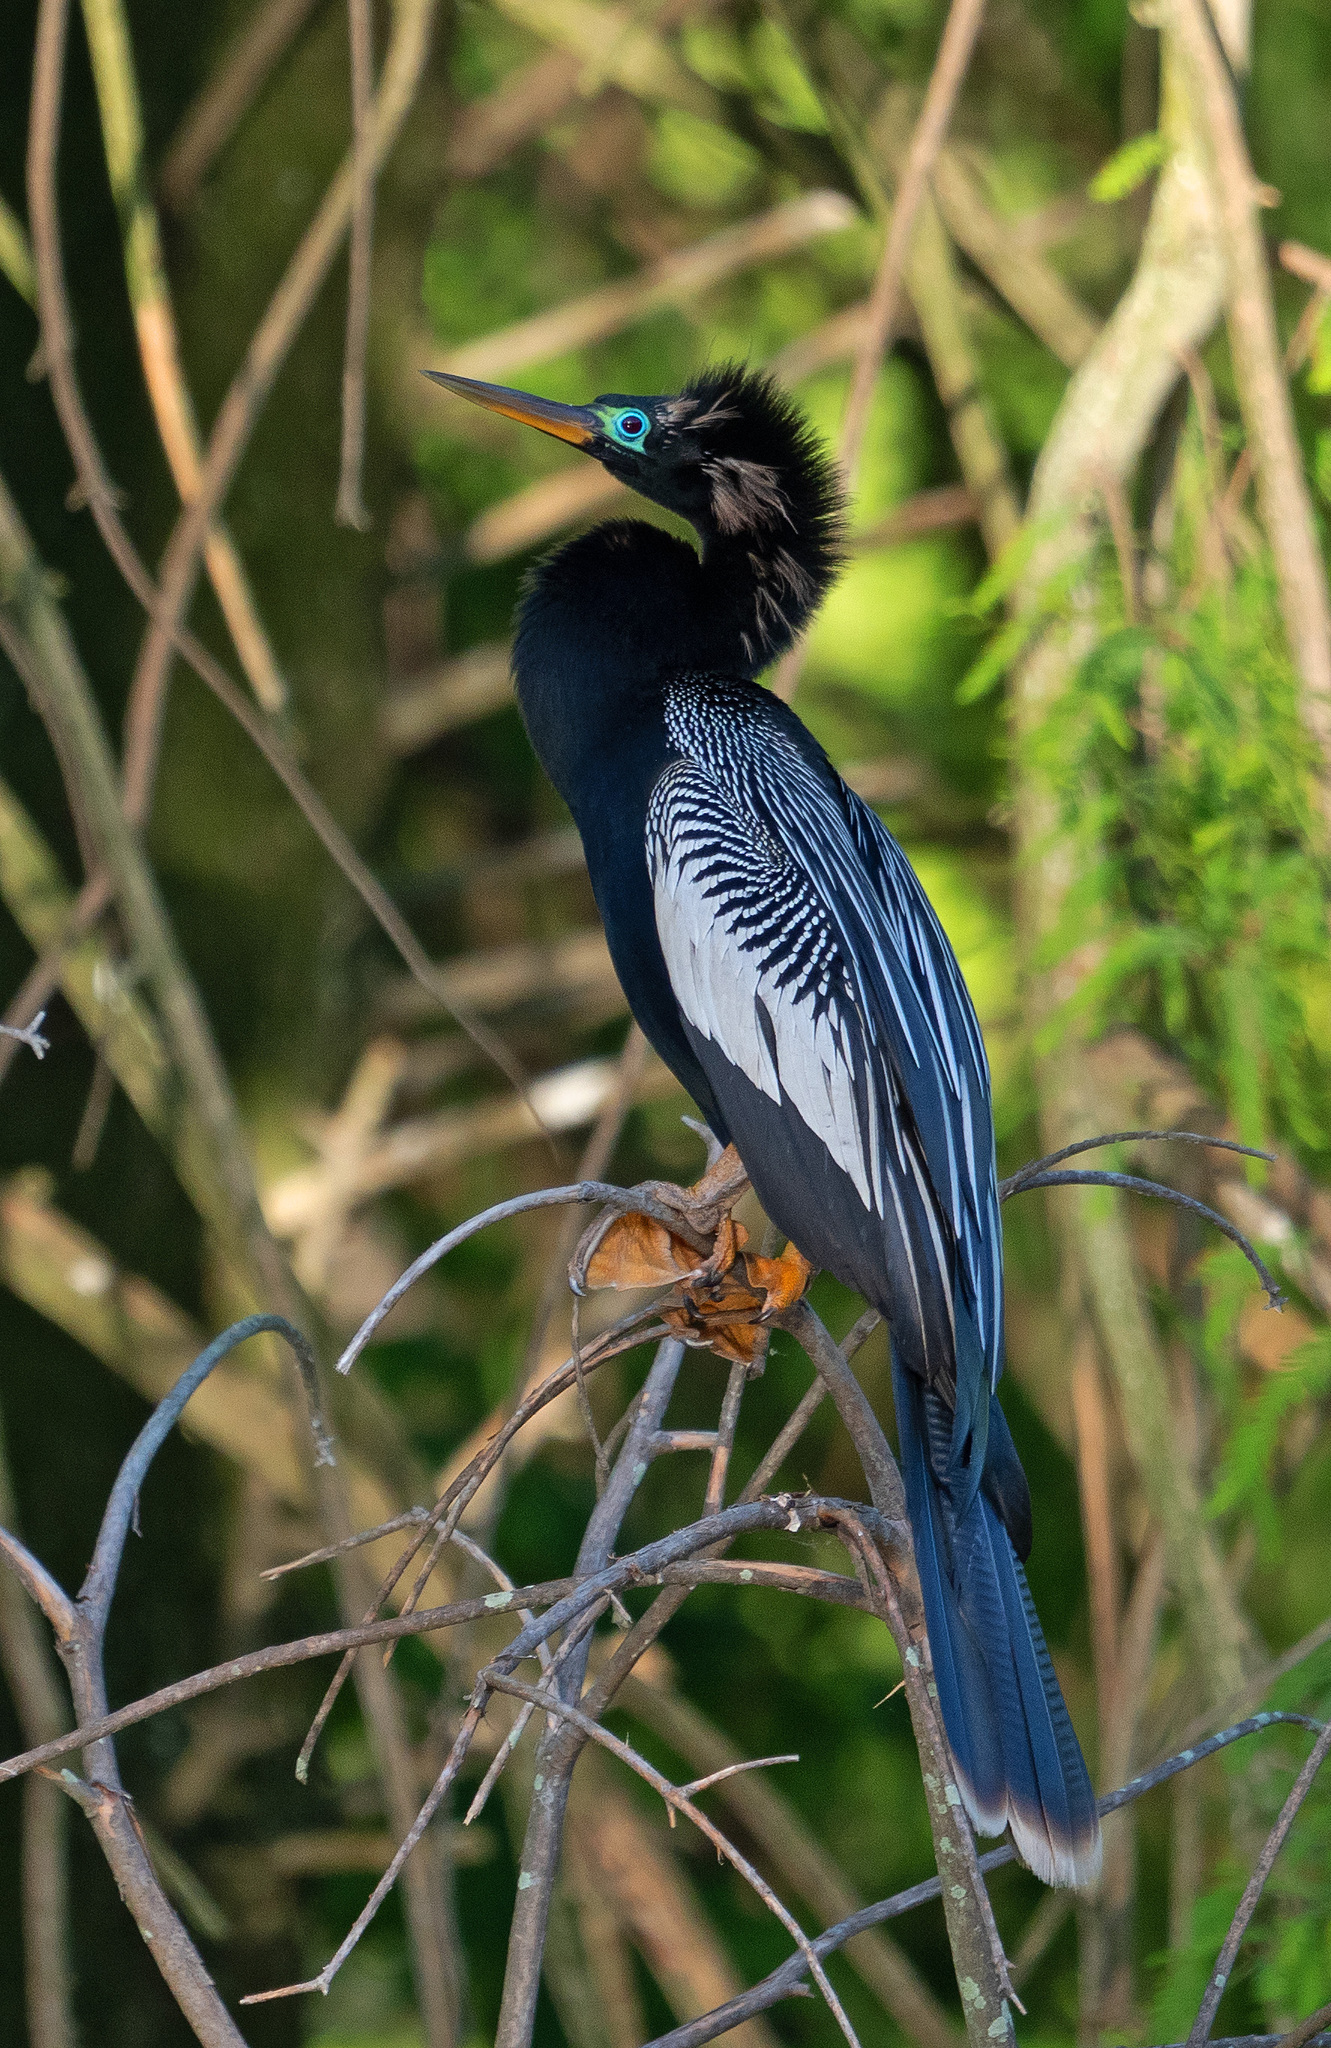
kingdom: Animalia
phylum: Chordata
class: Aves
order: Suliformes
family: Anhingidae
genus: Anhinga
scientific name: Anhinga anhinga
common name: Anhinga
